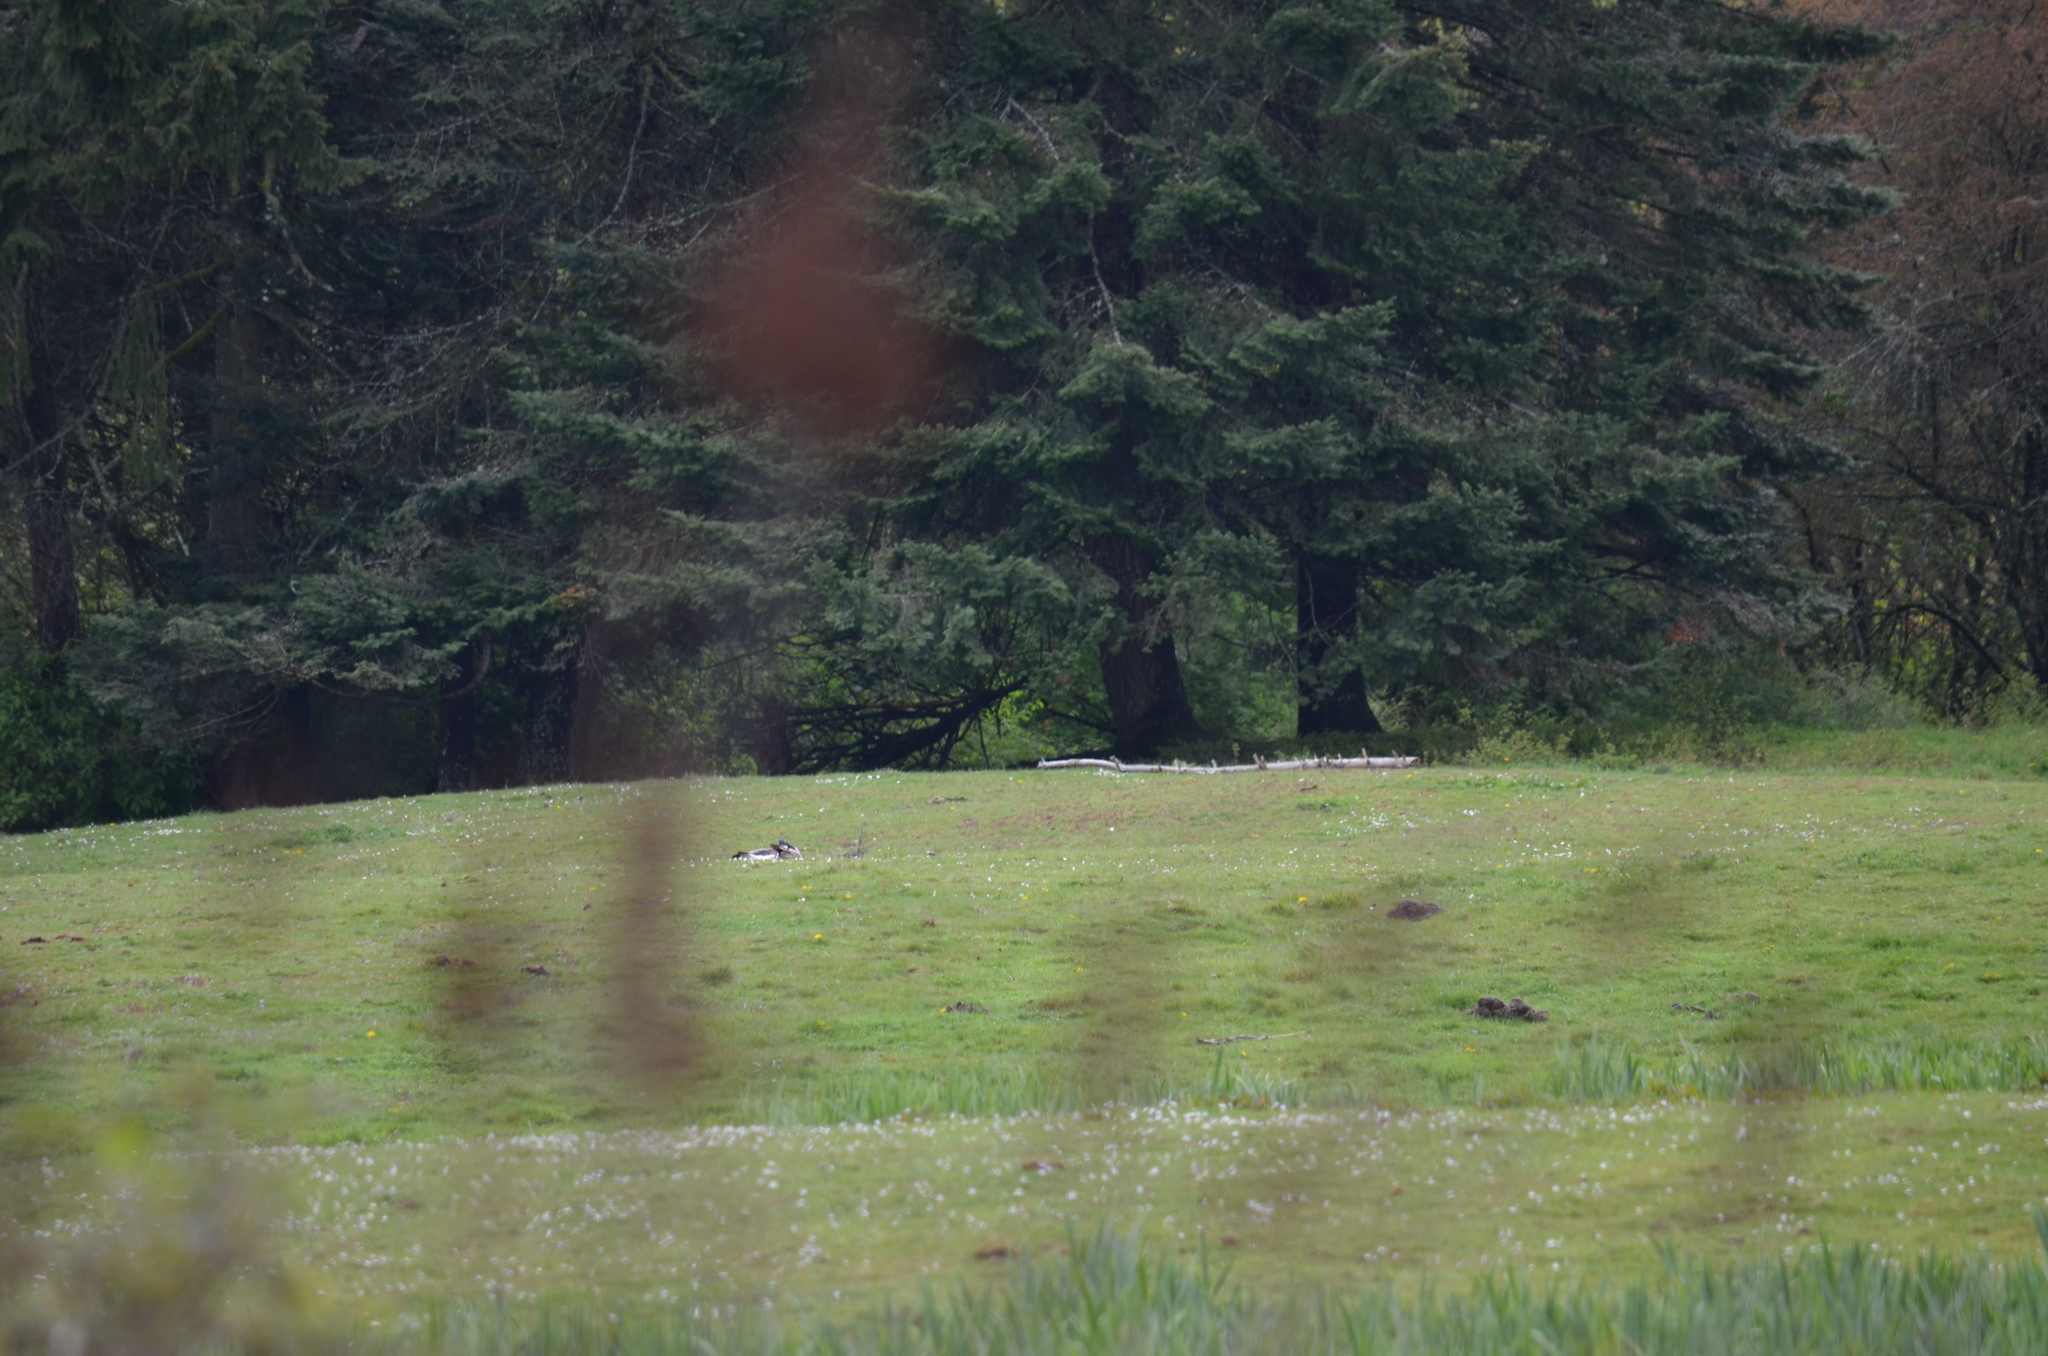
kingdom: Animalia
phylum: Chordata
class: Aves
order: Anseriformes
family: Anatidae
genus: Branta
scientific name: Branta canadensis
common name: Canada goose
